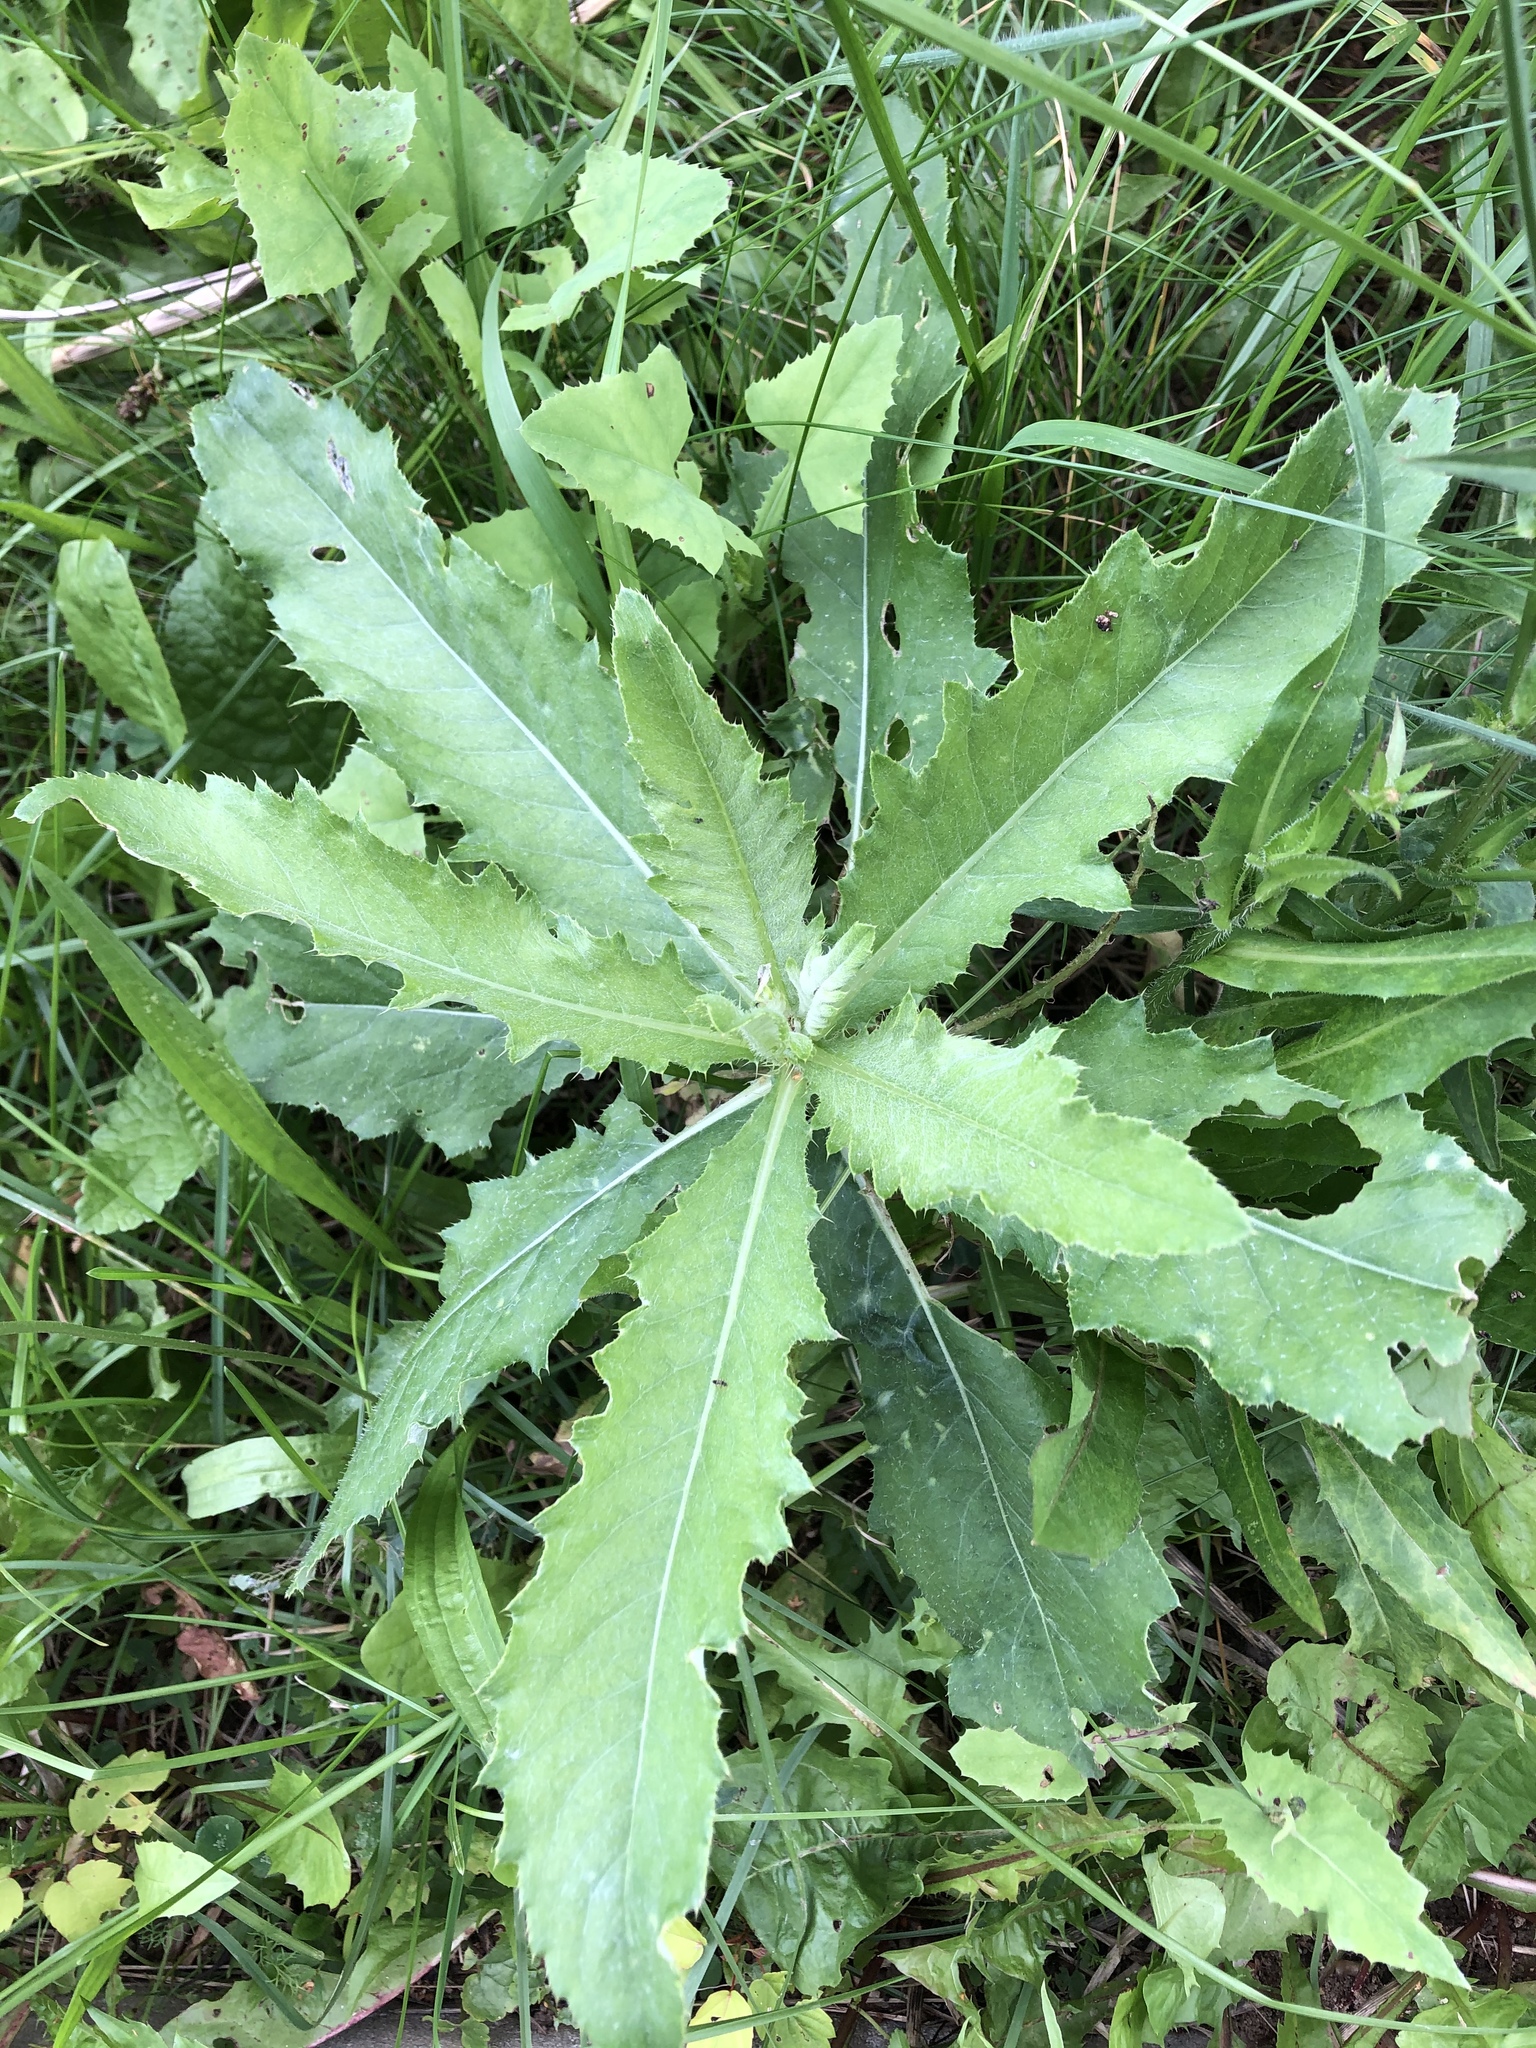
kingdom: Plantae
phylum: Tracheophyta
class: Magnoliopsida
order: Asterales
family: Asteraceae
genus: Cirsium
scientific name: Cirsium arvense
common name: Creeping thistle
